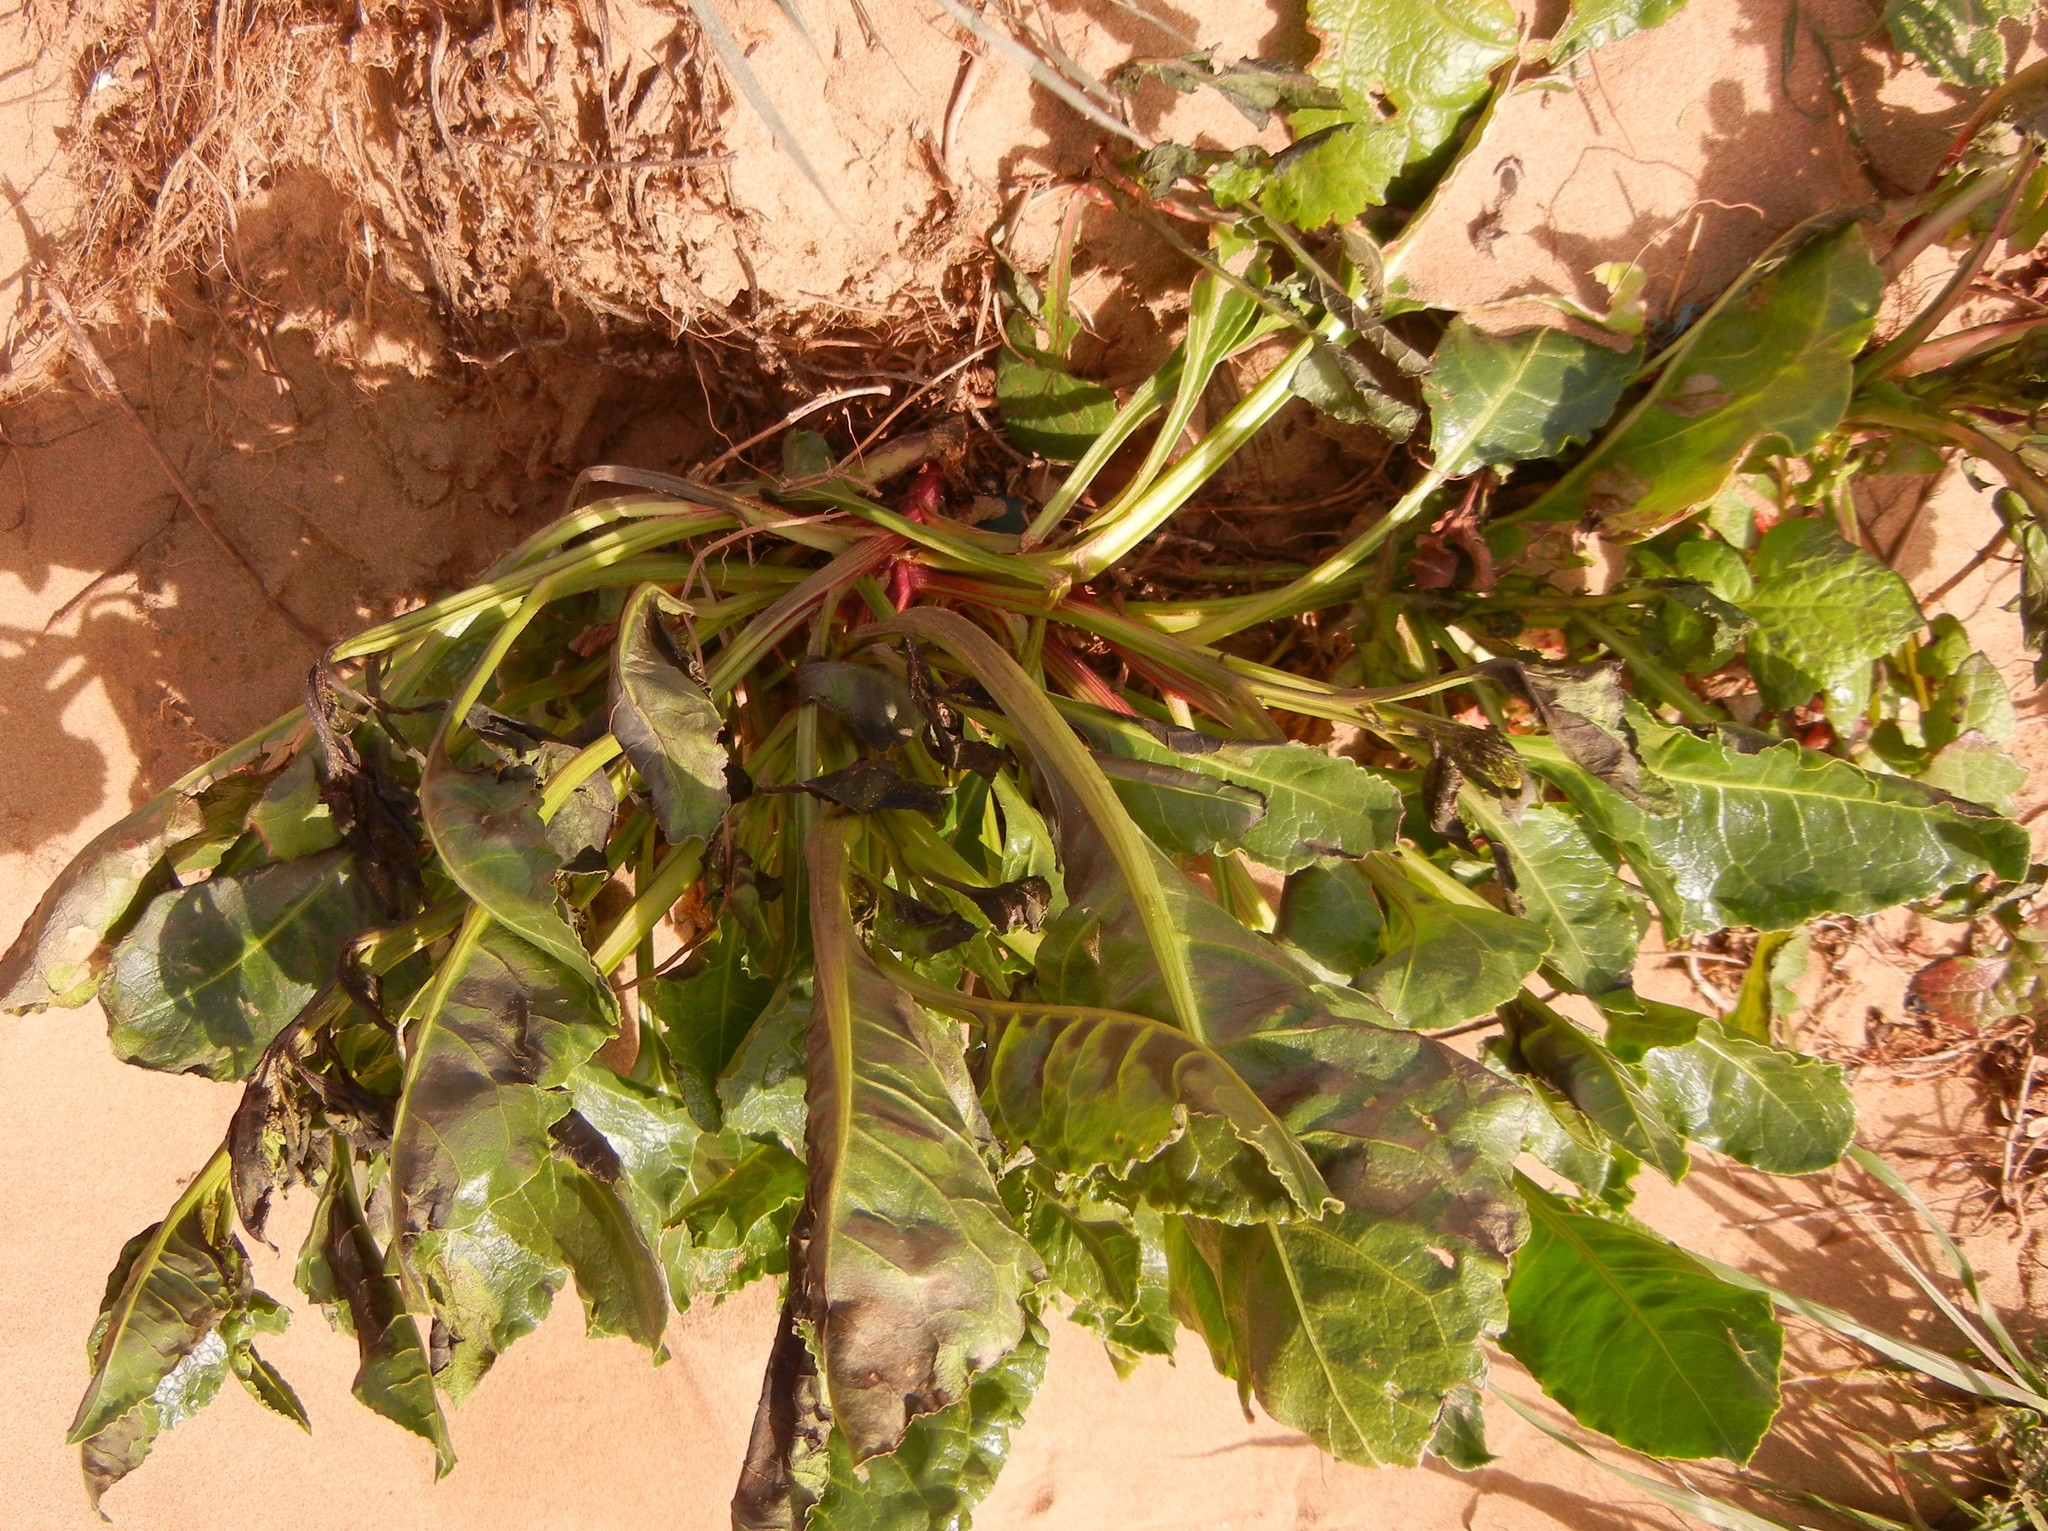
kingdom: Plantae
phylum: Tracheophyta
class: Magnoliopsida
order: Caryophyllales
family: Amaranthaceae
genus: Beta
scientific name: Beta vulgaris
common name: Beet
